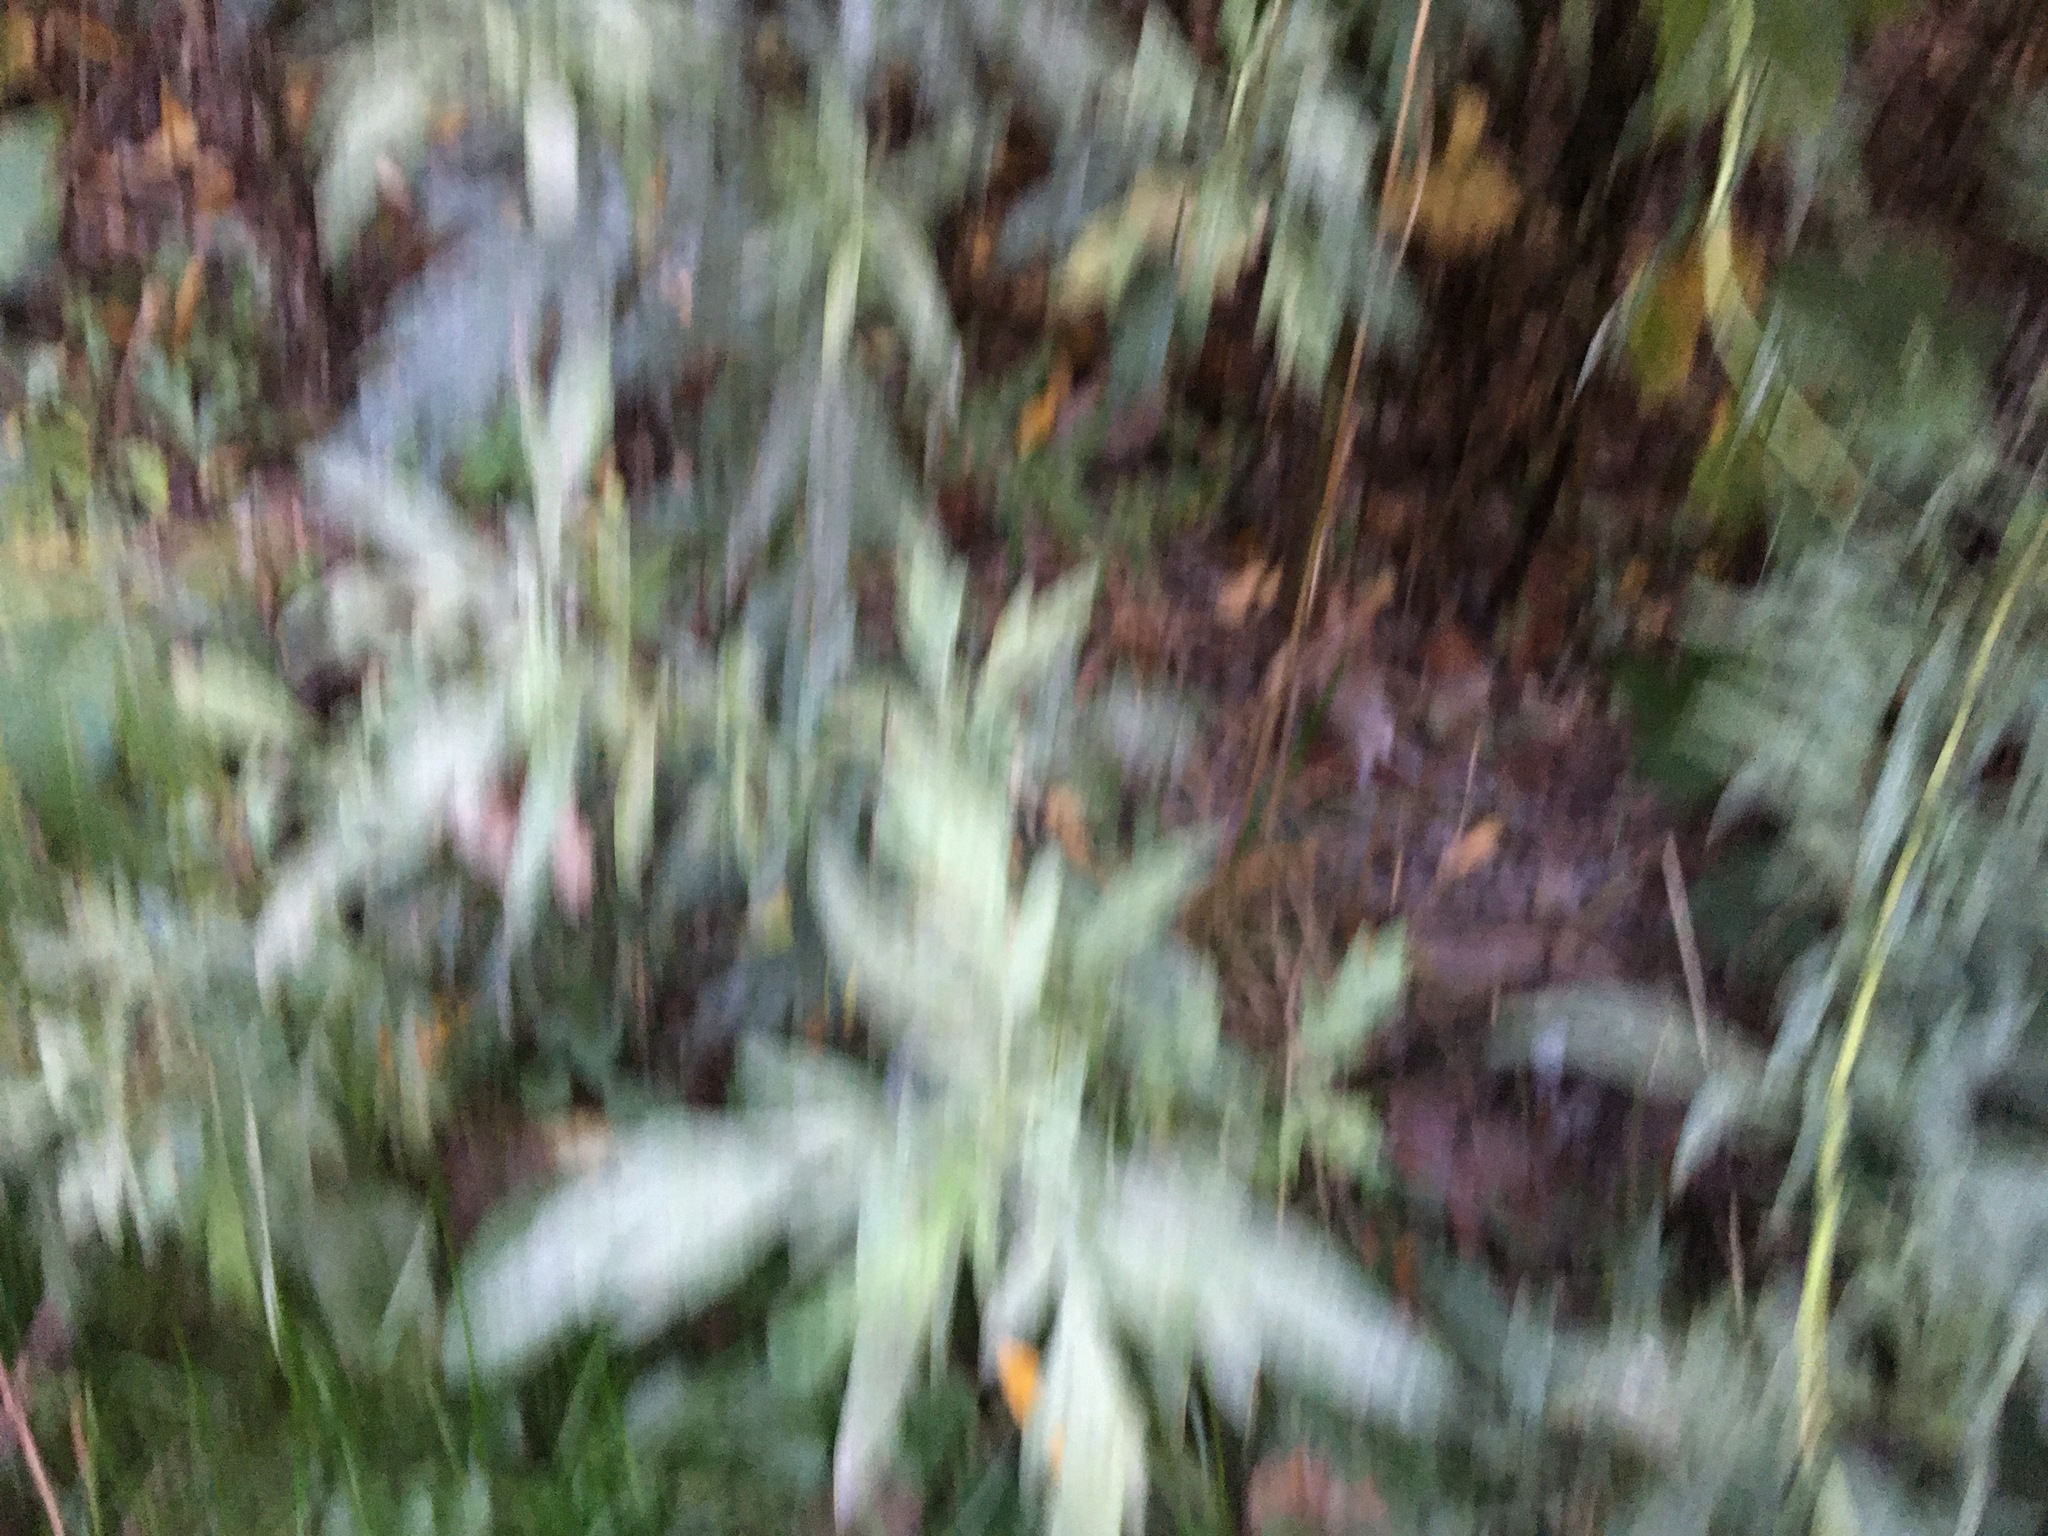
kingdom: Plantae
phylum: Tracheophyta
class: Magnoliopsida
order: Asterales
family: Asteraceae
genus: Artemisia
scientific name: Artemisia vulgaris
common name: Mugwort
